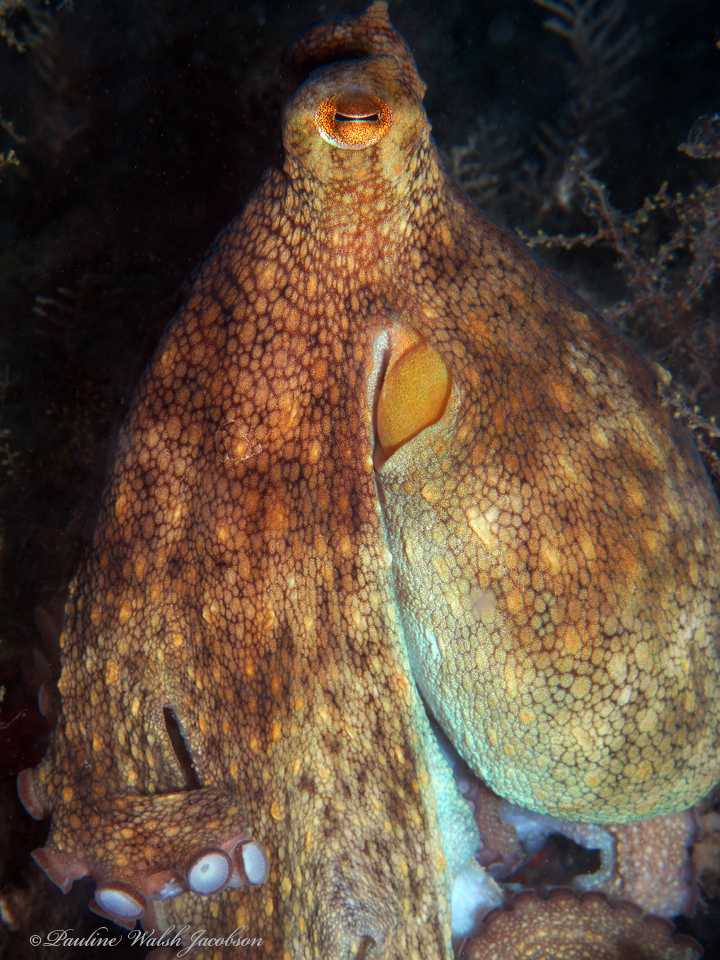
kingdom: Animalia
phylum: Mollusca
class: Cephalopoda
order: Octopoda
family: Octopodidae
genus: Octopus
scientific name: Octopus americanus
